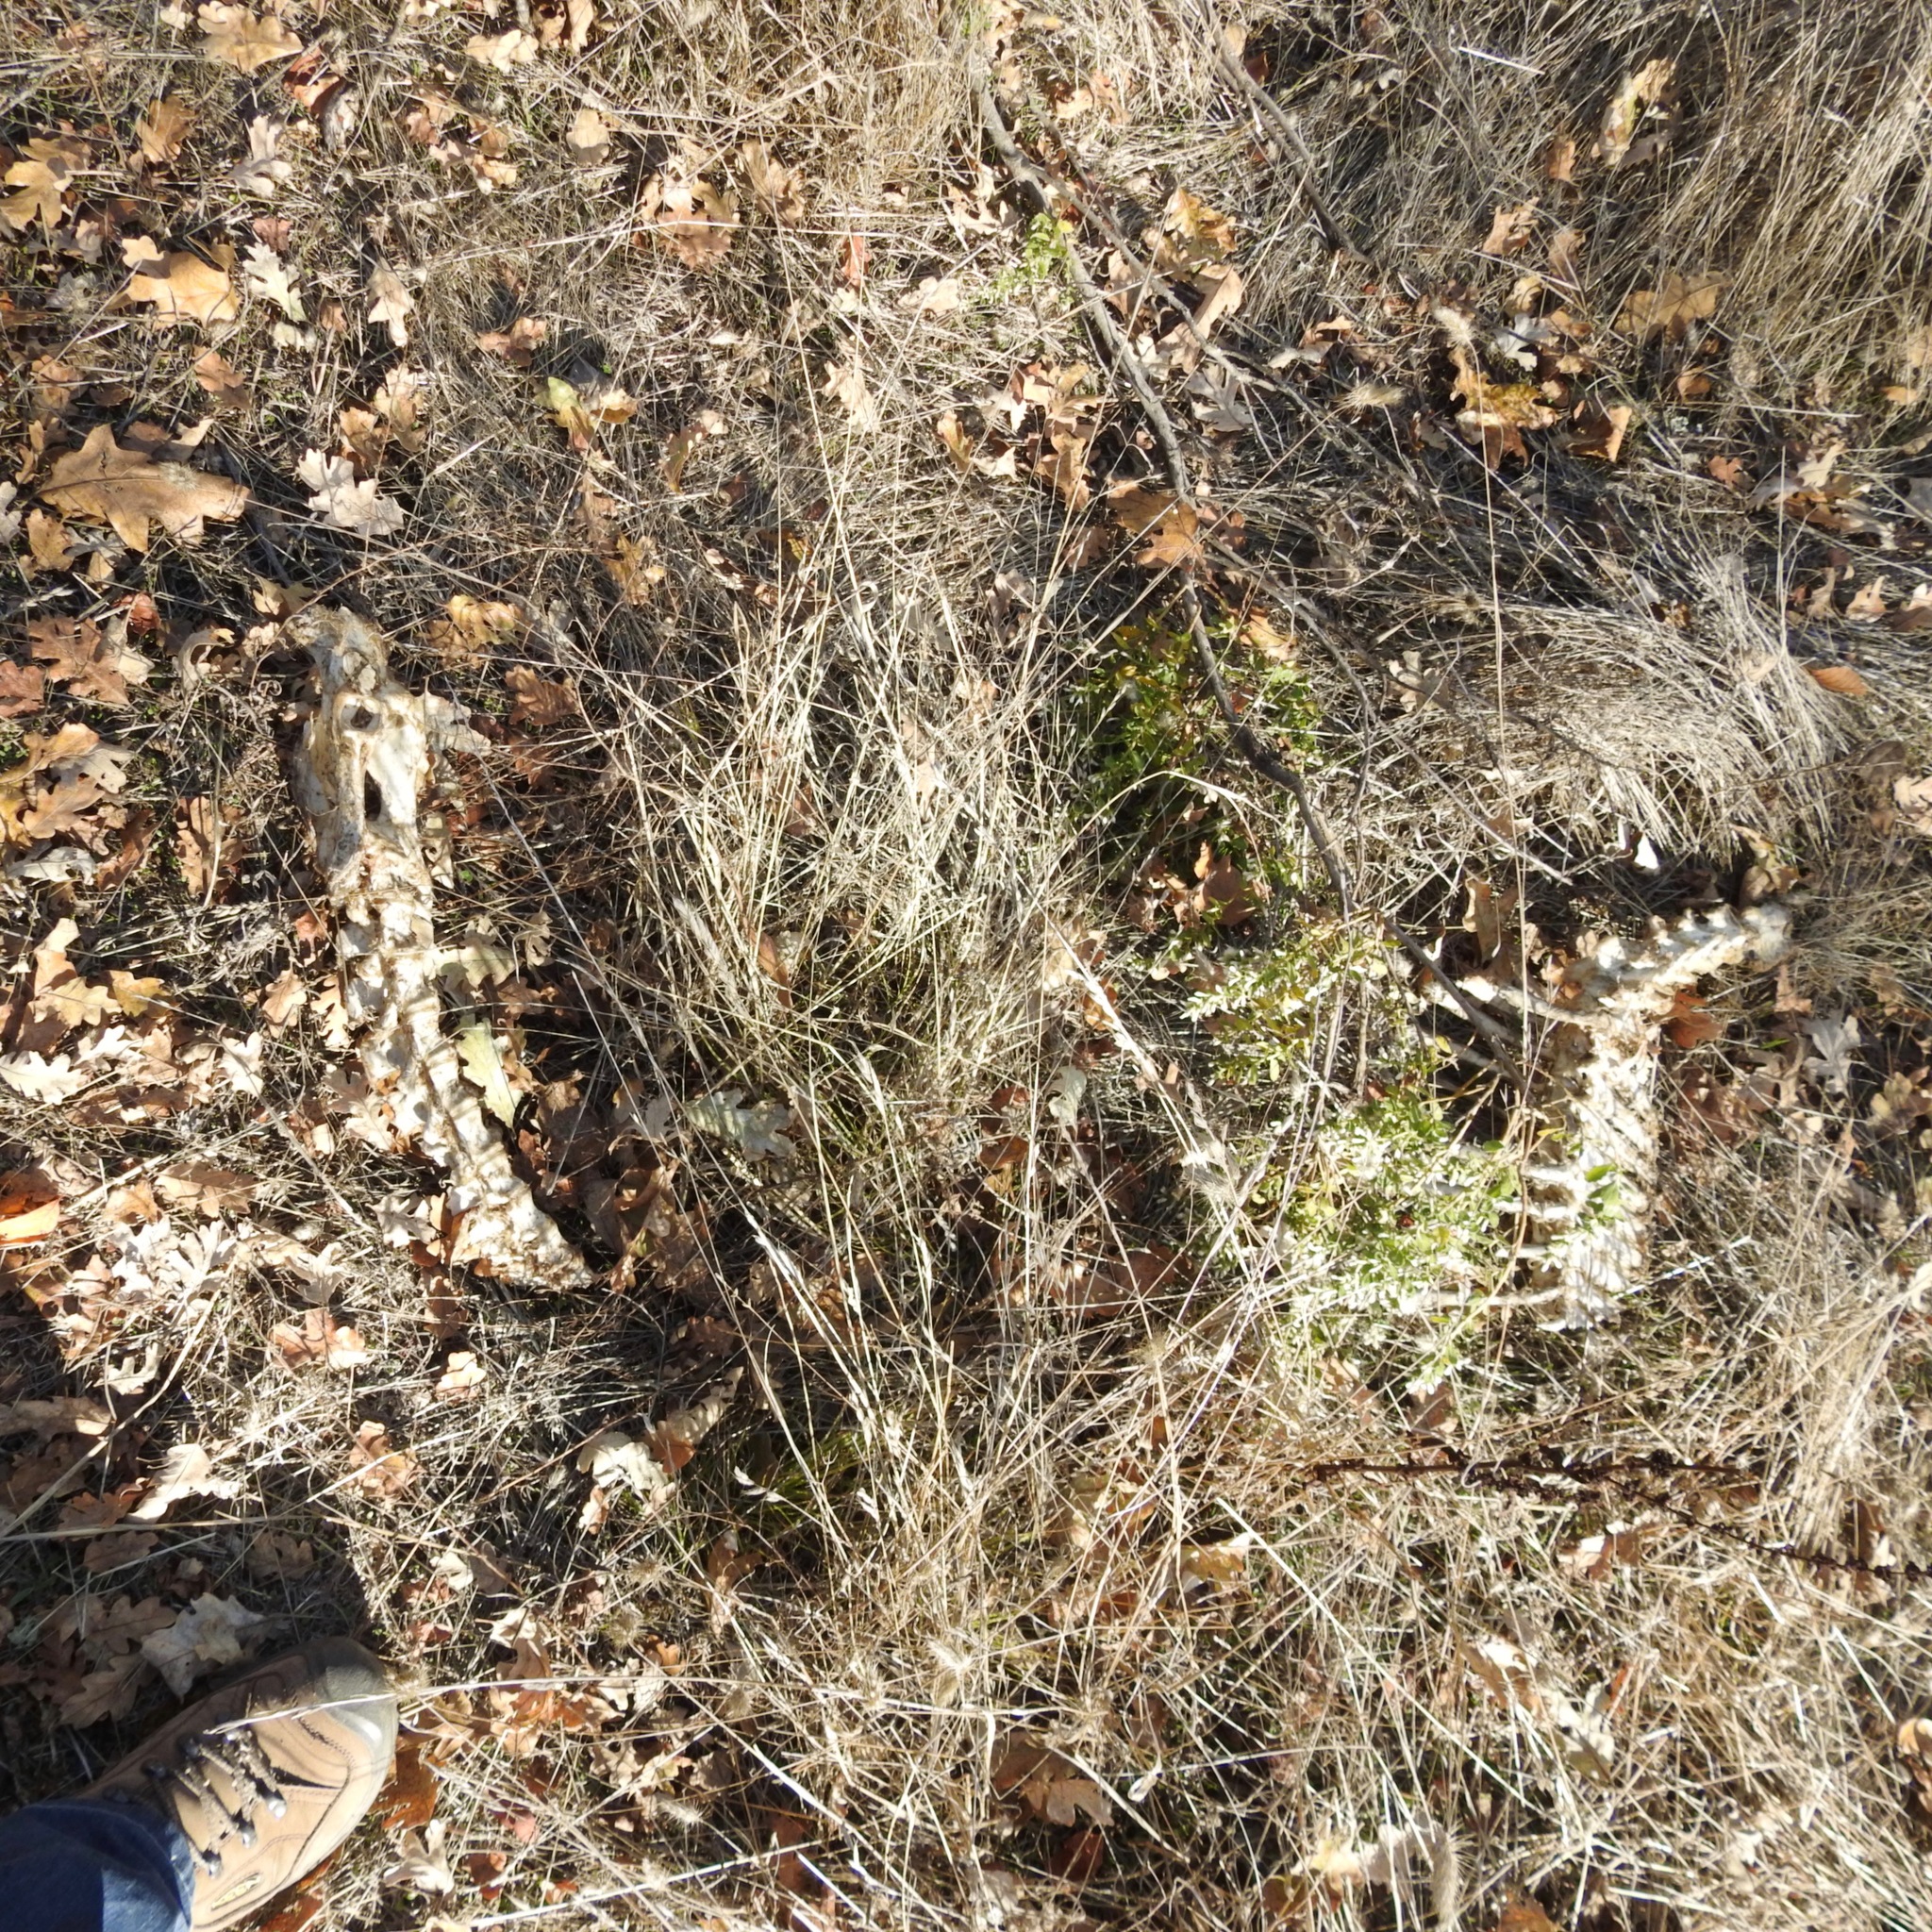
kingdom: Animalia
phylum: Chordata
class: Mammalia
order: Artiodactyla
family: Cervidae
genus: Odocoileus
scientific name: Odocoileus hemionus
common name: Mule deer
